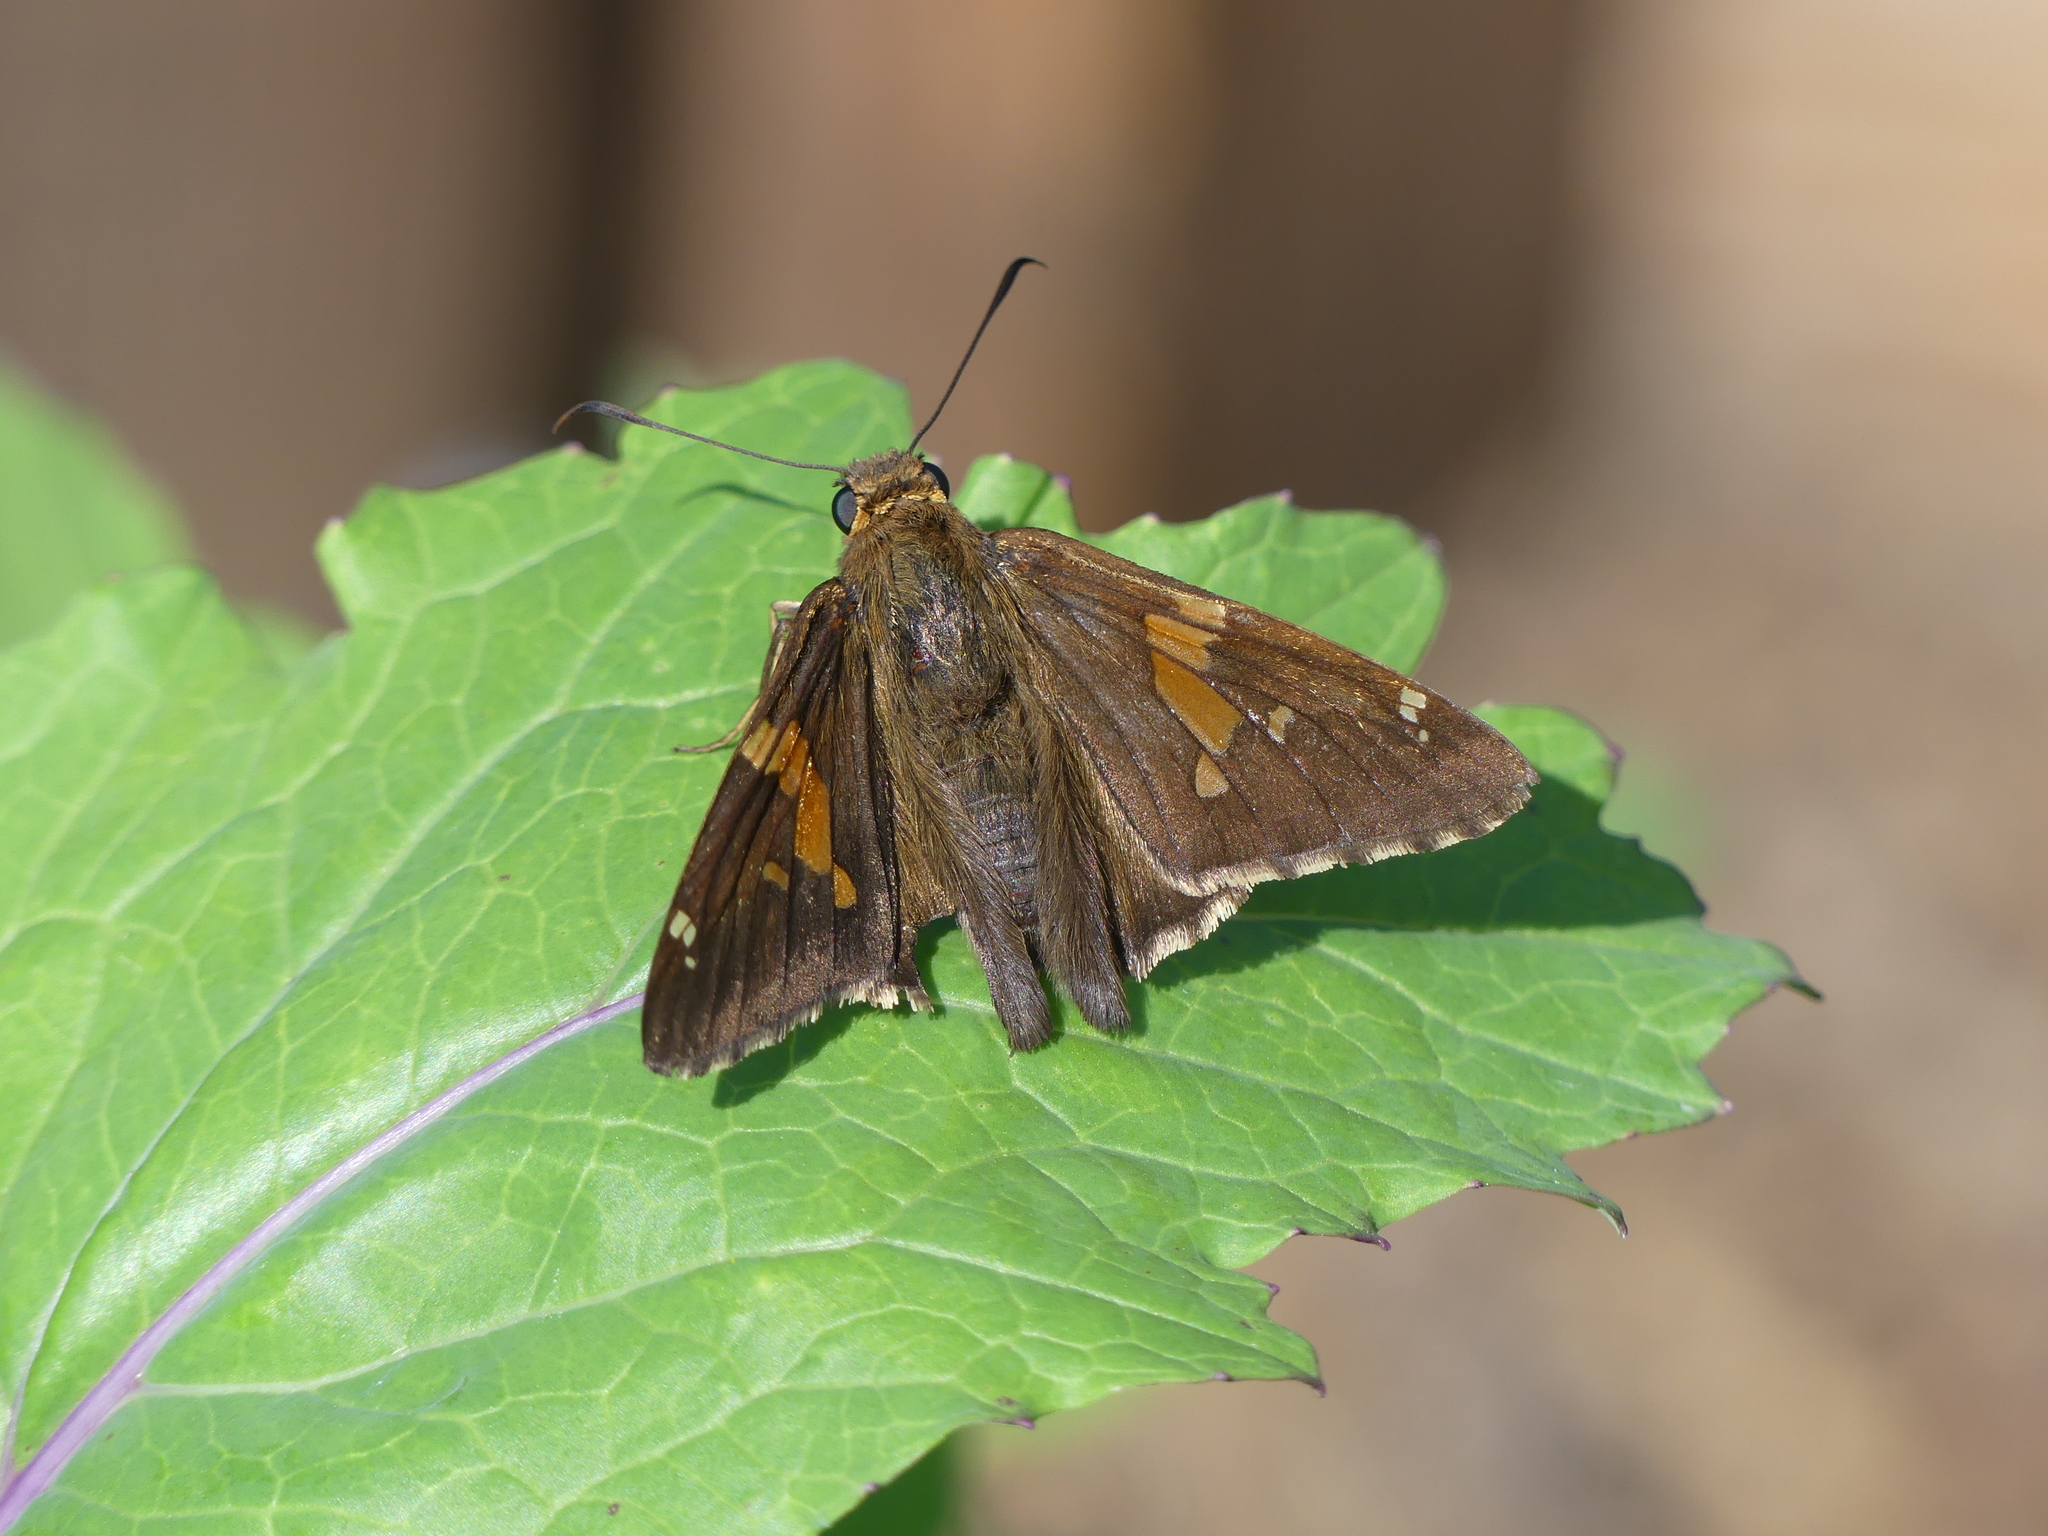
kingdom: Animalia
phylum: Arthropoda
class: Insecta
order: Lepidoptera
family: Hesperiidae
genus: Epargyreus
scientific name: Epargyreus clarus
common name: Silver-spotted skipper
